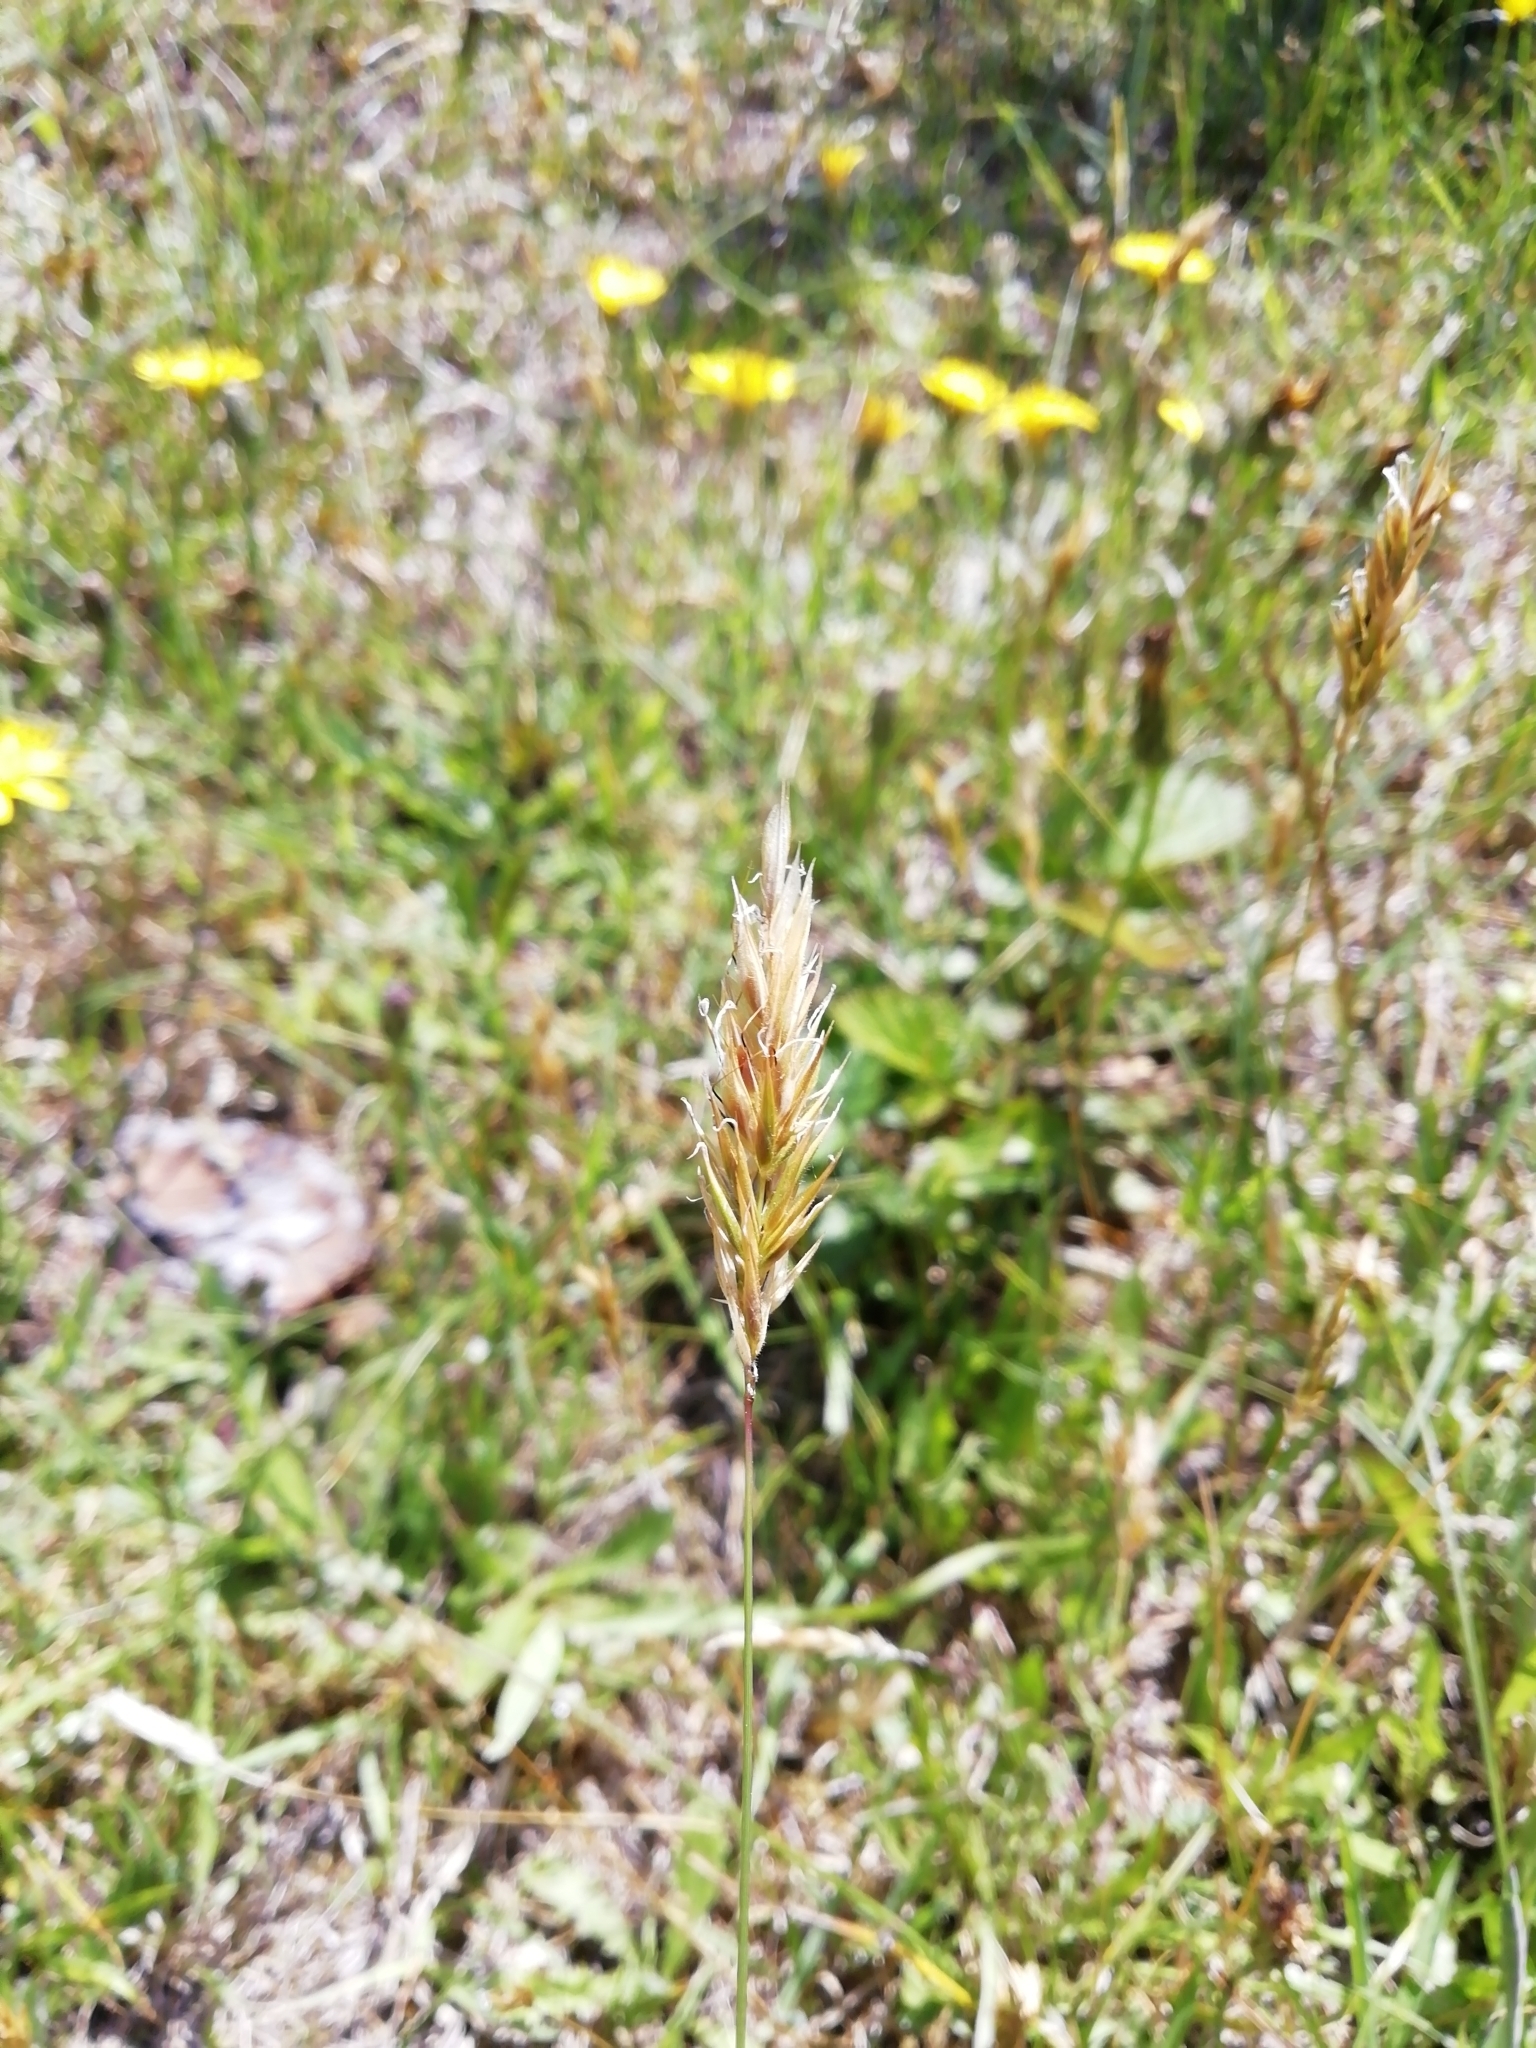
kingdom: Plantae
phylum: Tracheophyta
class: Liliopsida
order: Poales
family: Poaceae
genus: Anthoxanthum
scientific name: Anthoxanthum odoratum
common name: Sweet vernalgrass
